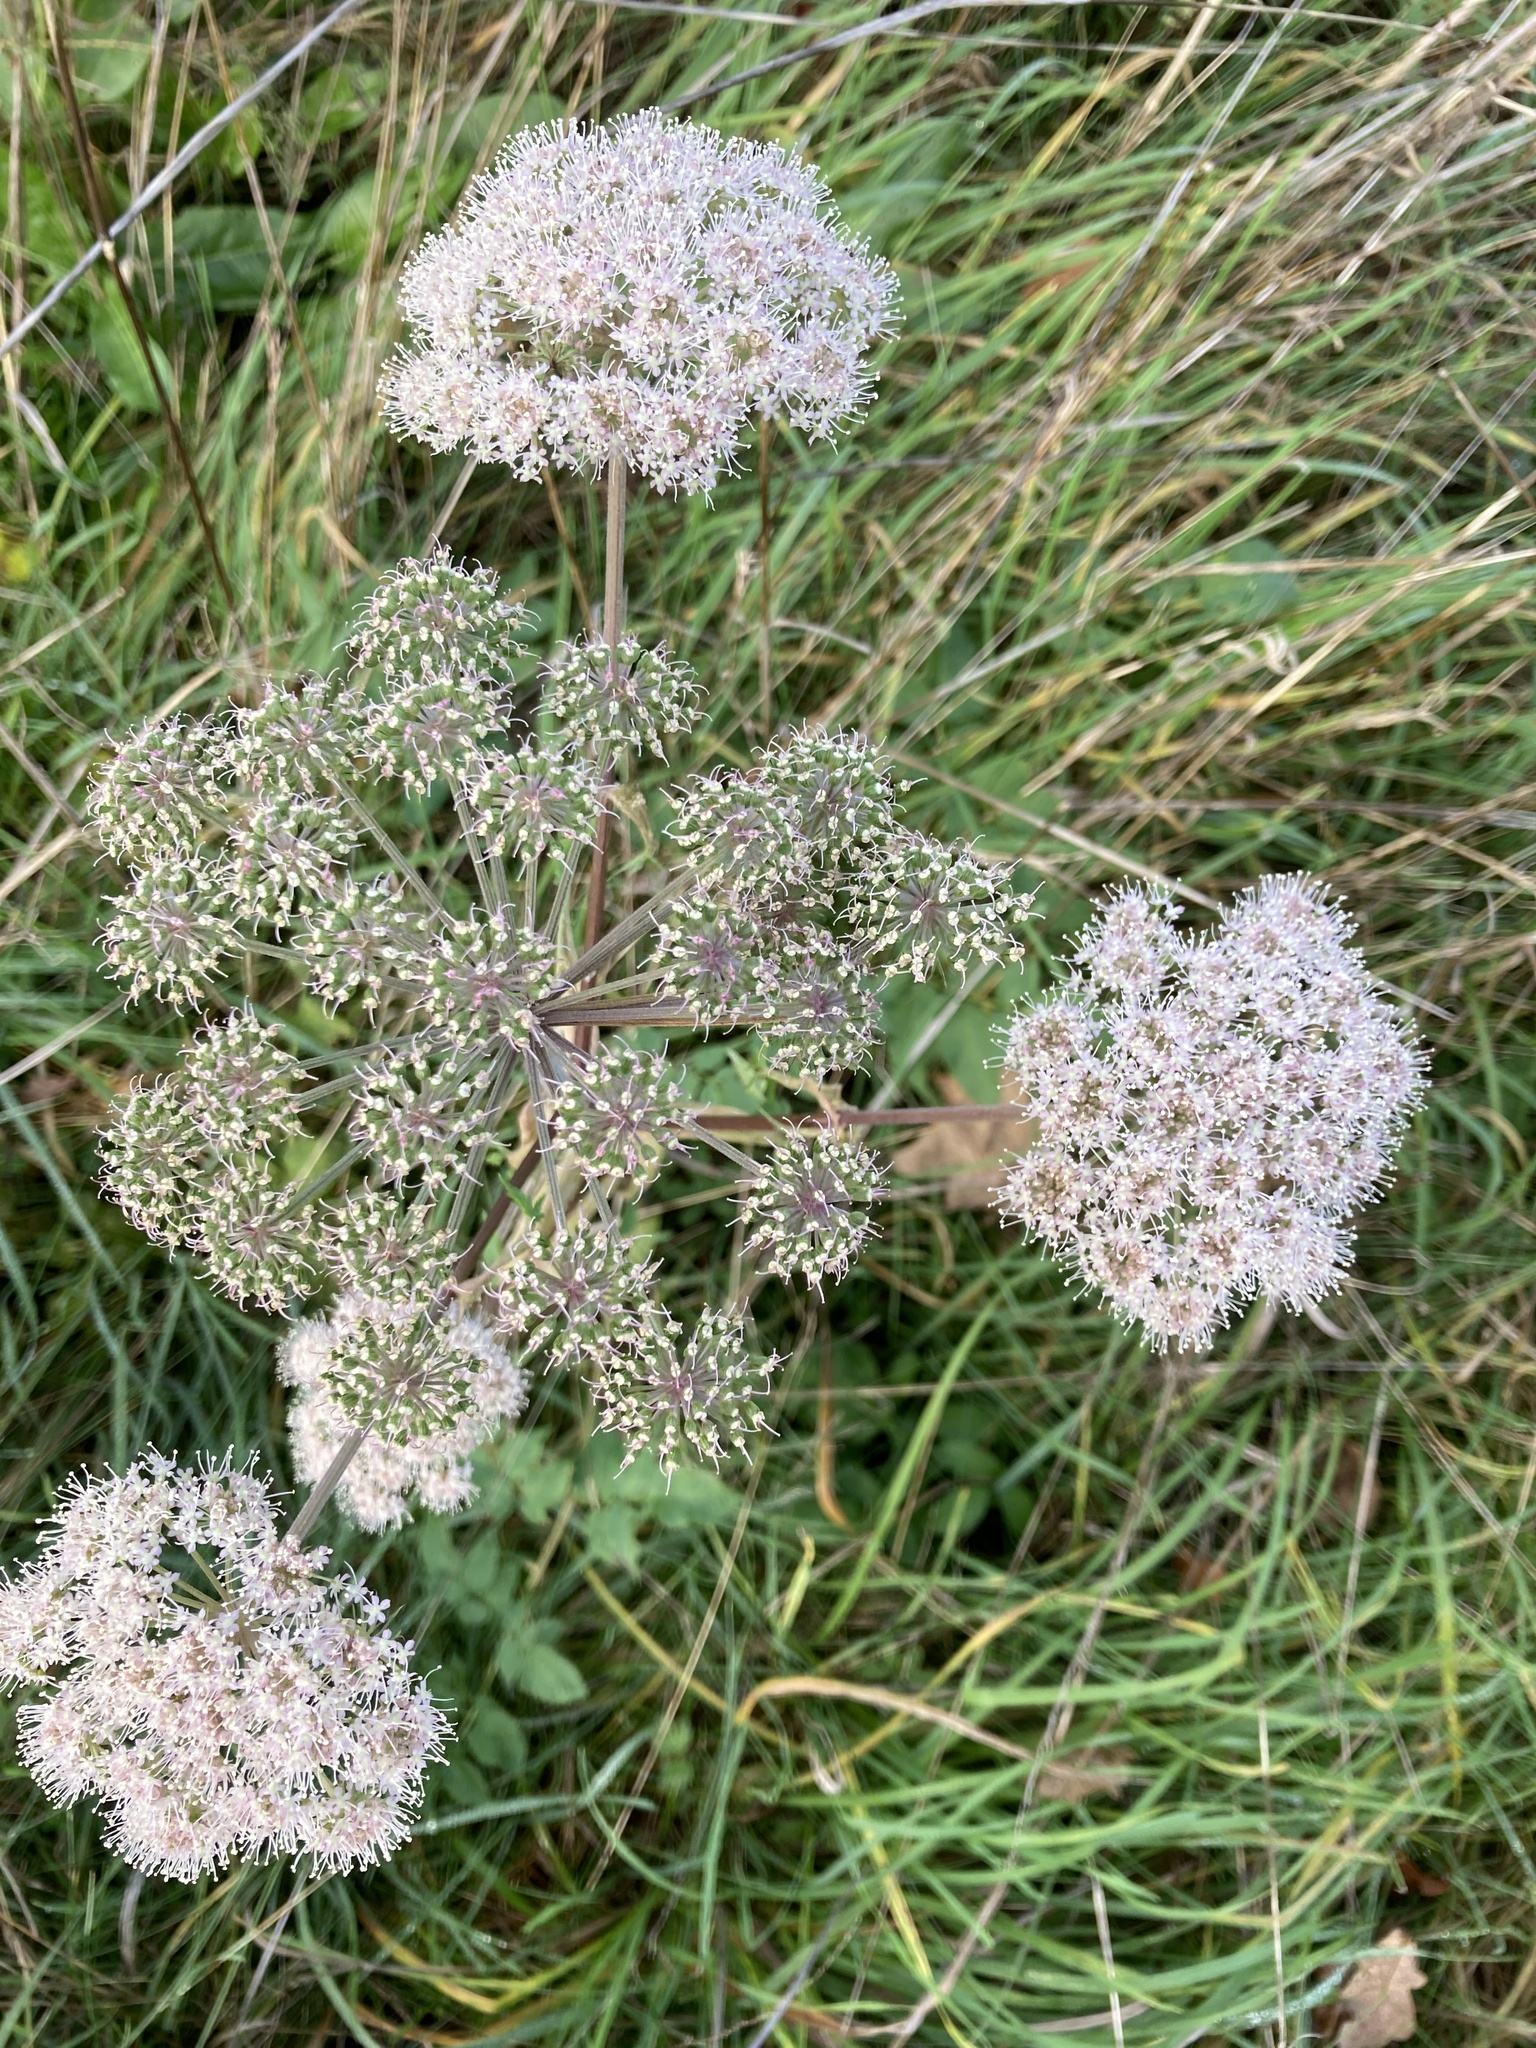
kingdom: Plantae
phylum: Tracheophyta
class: Magnoliopsida
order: Apiales
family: Apiaceae
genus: Angelica
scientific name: Angelica sylvestris
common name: Wild angelica
